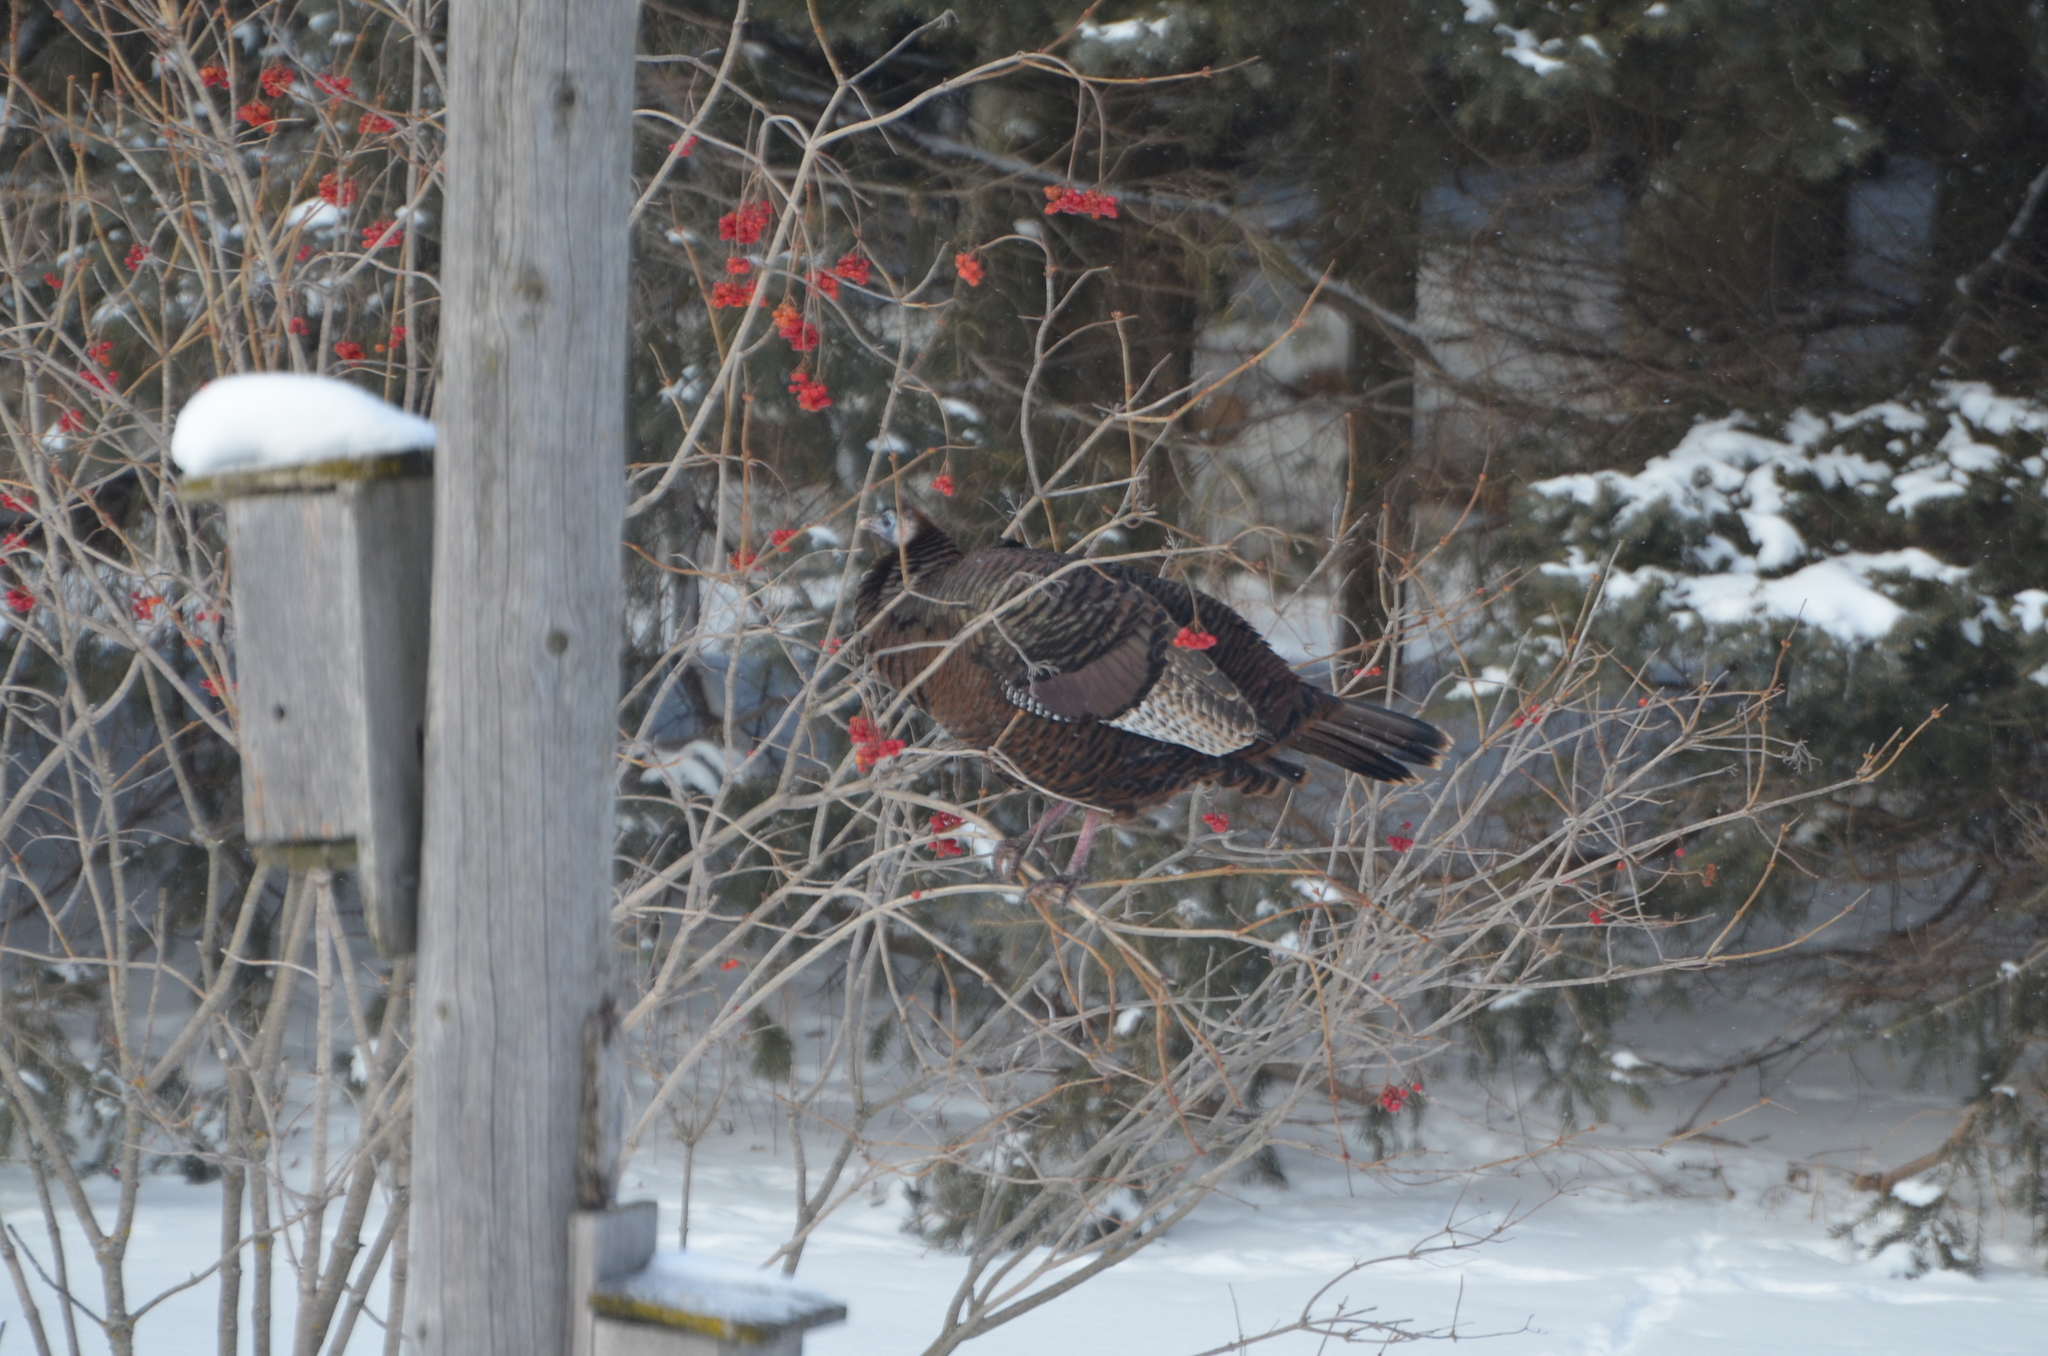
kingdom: Animalia
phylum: Chordata
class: Aves
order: Galliformes
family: Phasianidae
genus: Meleagris
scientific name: Meleagris gallopavo
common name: Wild turkey
